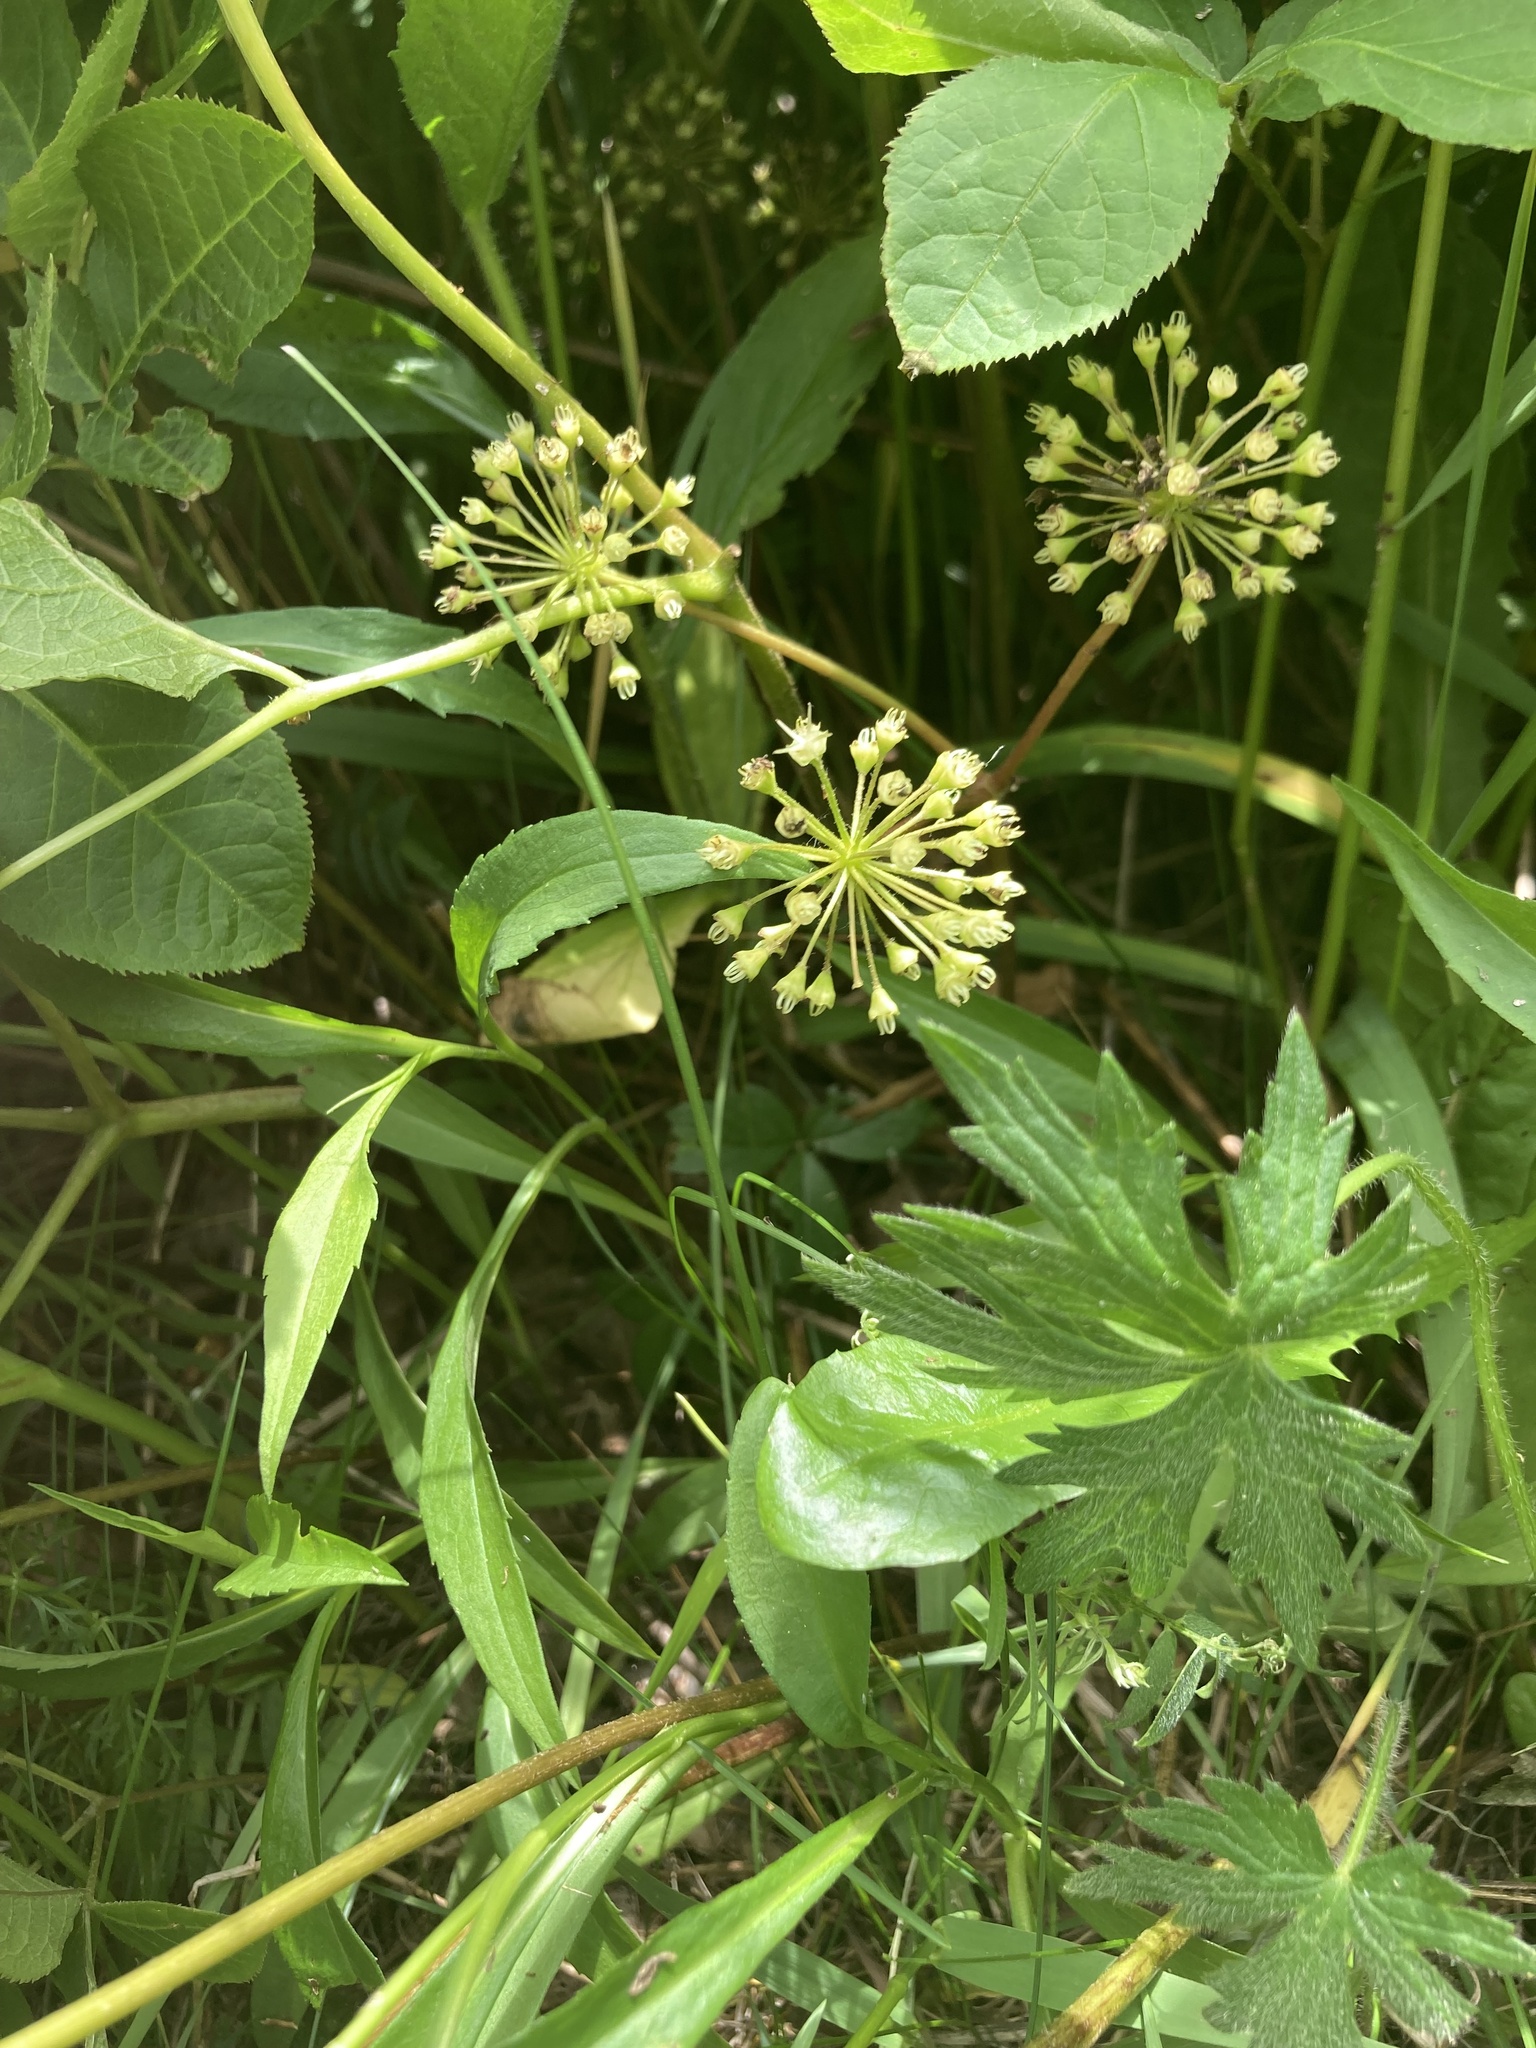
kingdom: Plantae
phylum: Tracheophyta
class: Magnoliopsida
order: Apiales
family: Araliaceae
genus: Aralia
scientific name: Aralia nudicaulis
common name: Wild sarsaparilla
